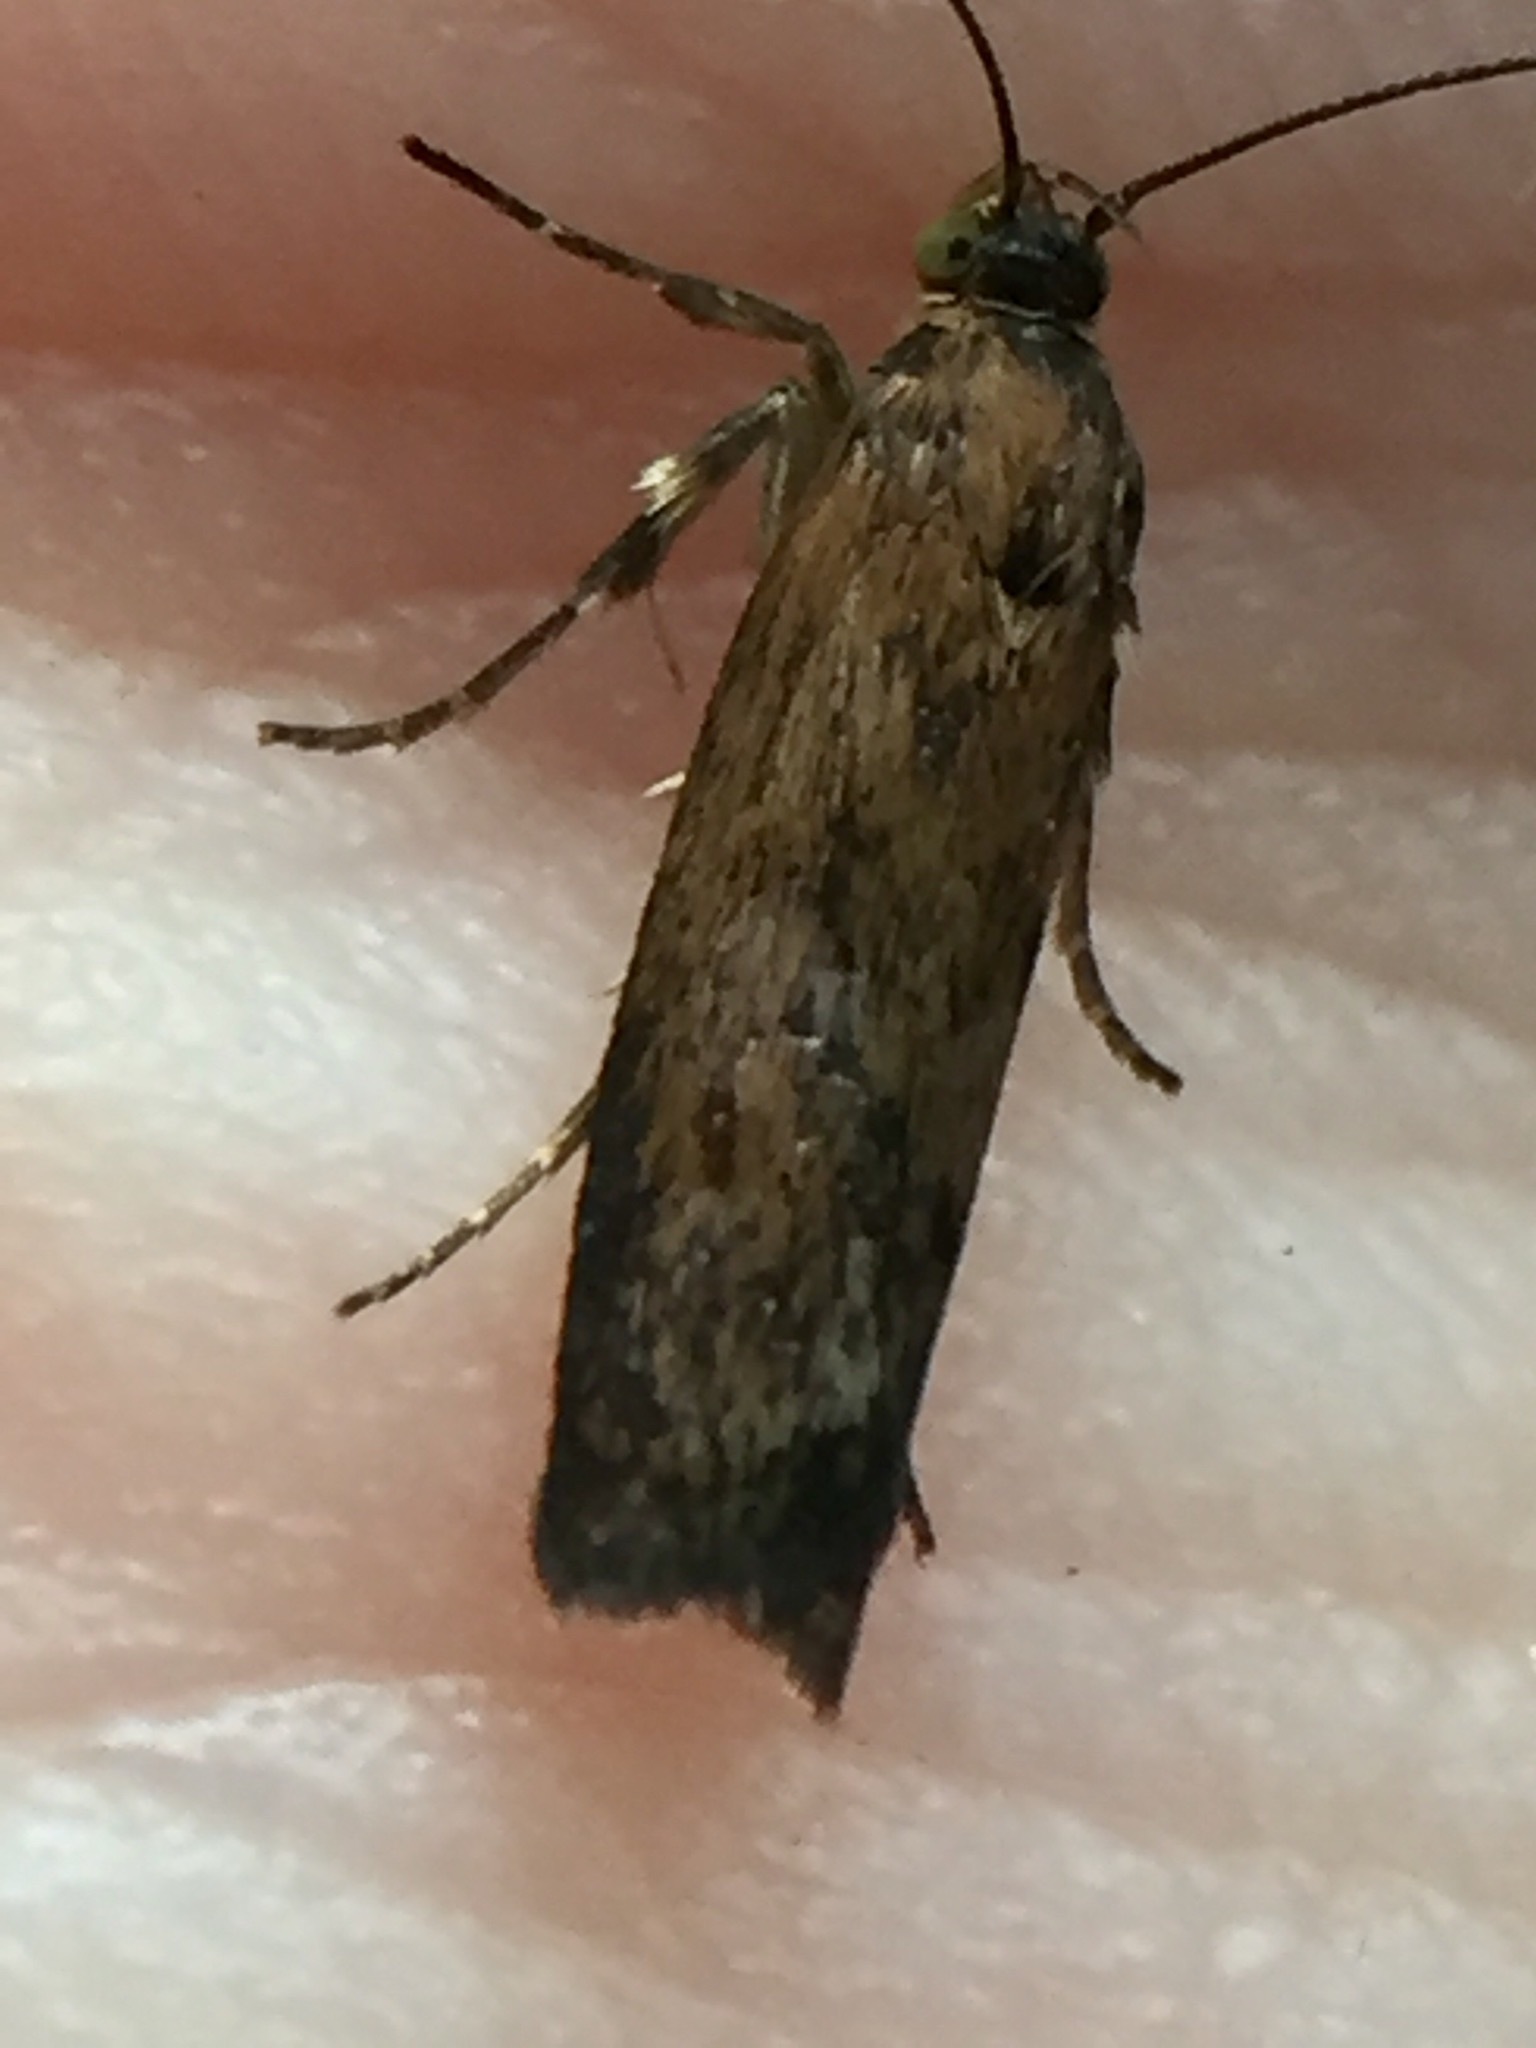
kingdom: Animalia
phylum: Arthropoda
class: Insecta
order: Lepidoptera
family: Oecophoridae
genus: Hierodoris
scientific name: Hierodoris atychioides
